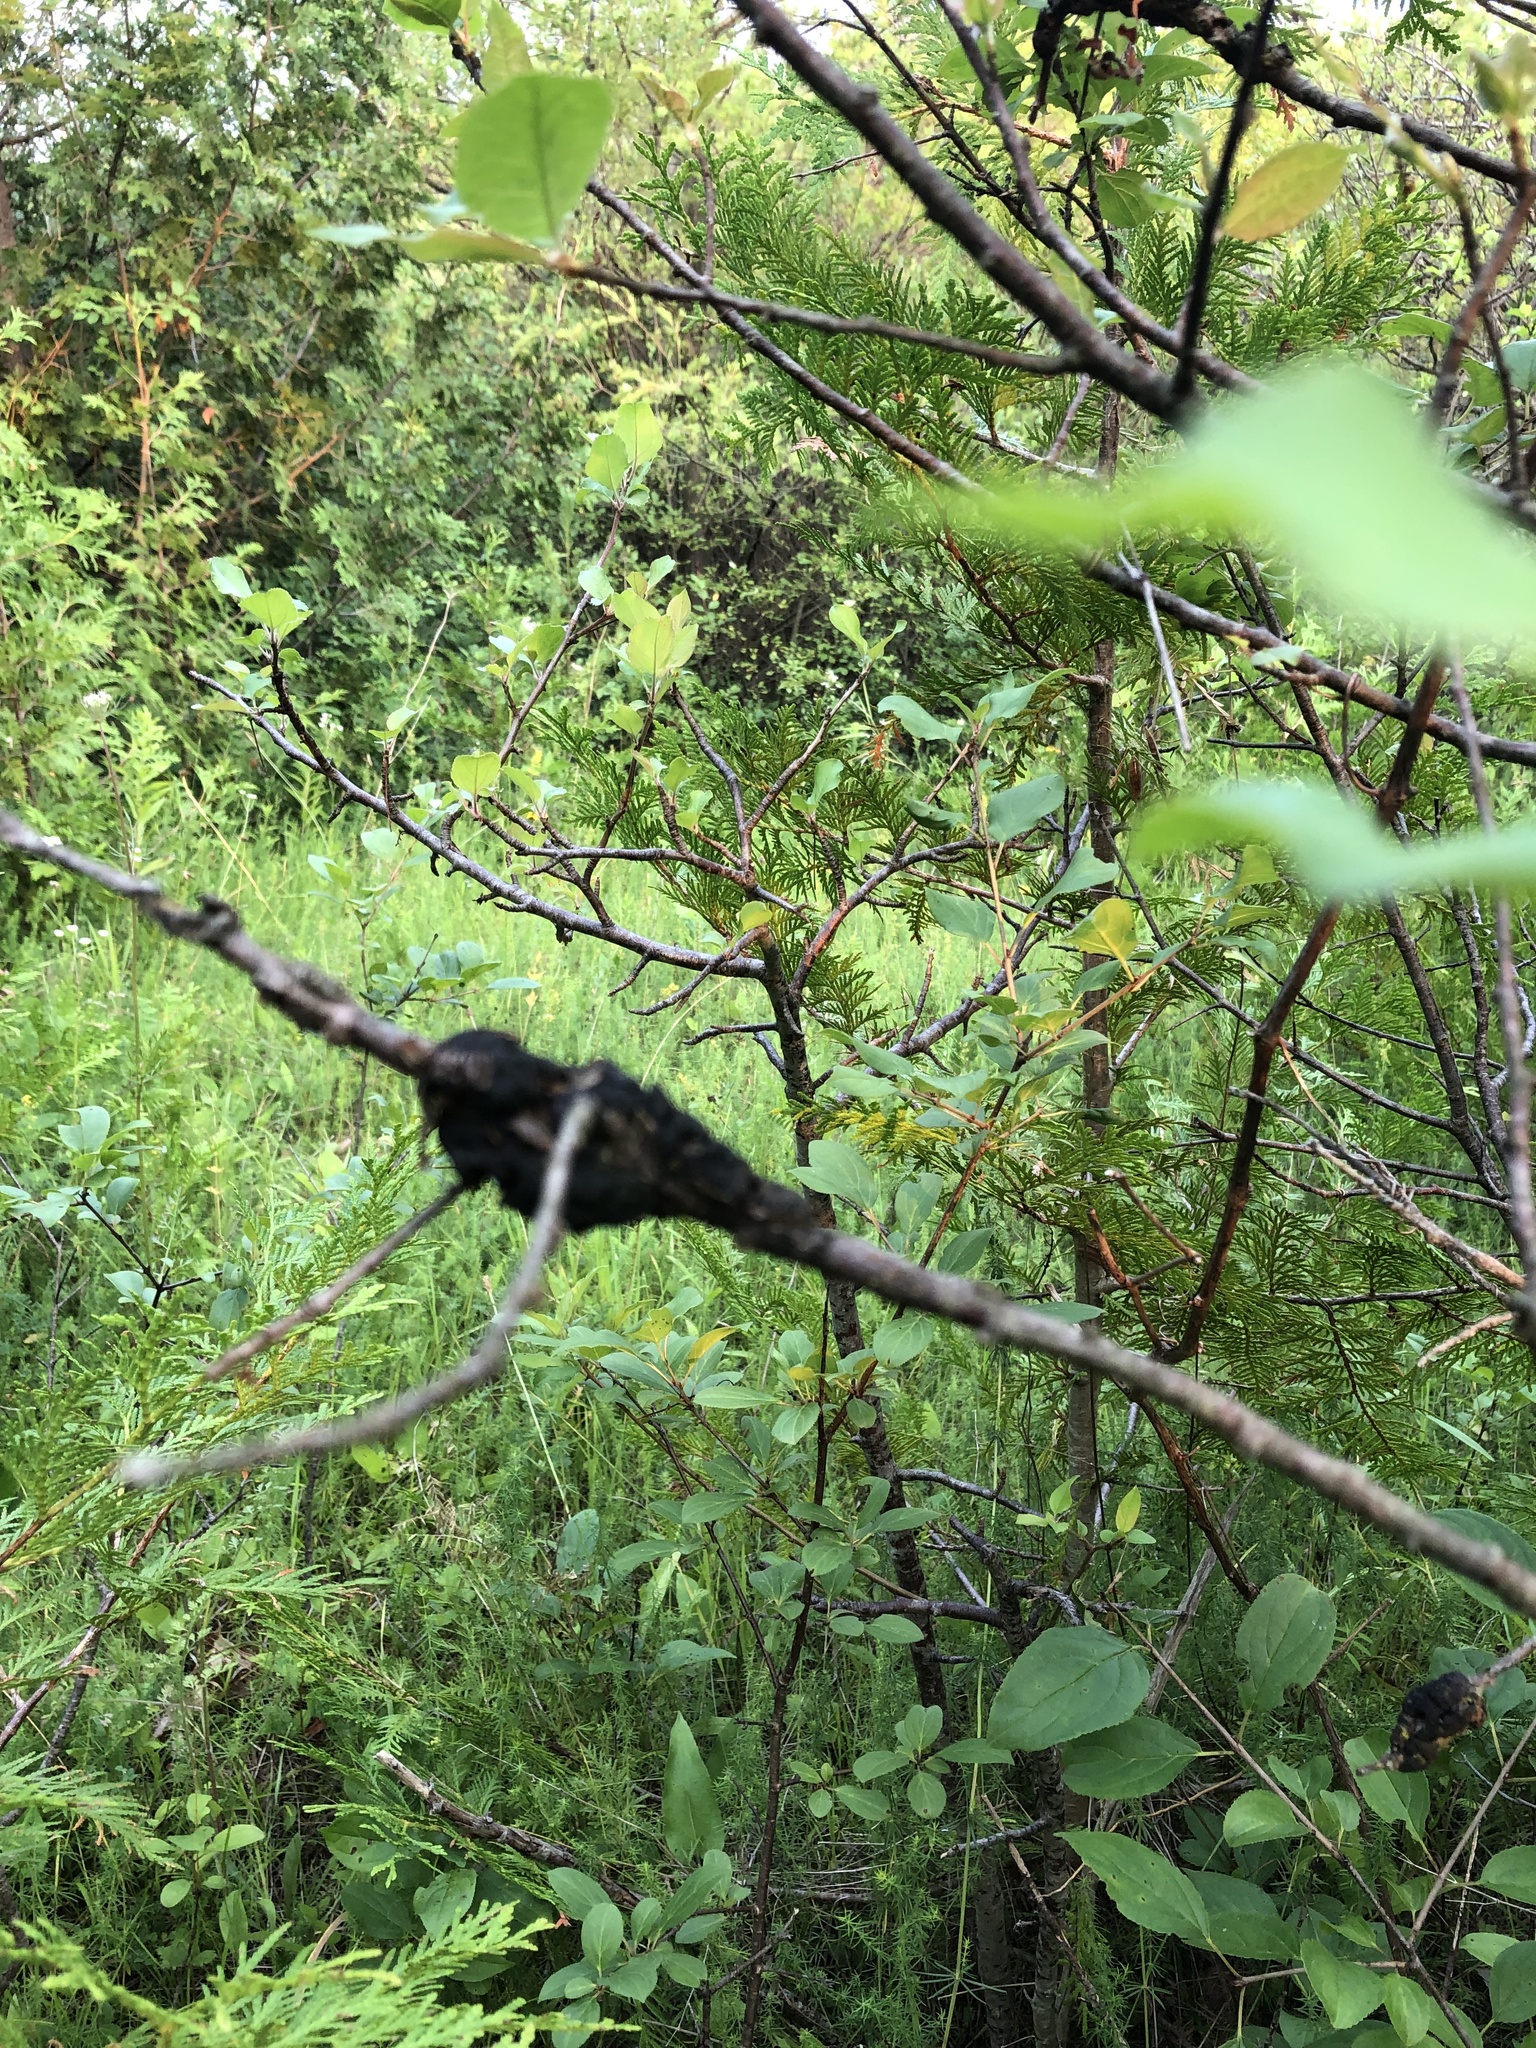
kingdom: Fungi
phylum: Ascomycota
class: Dothideomycetes
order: Venturiales
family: Venturiaceae
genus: Apiosporina
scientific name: Apiosporina morbosa
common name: Black knot
